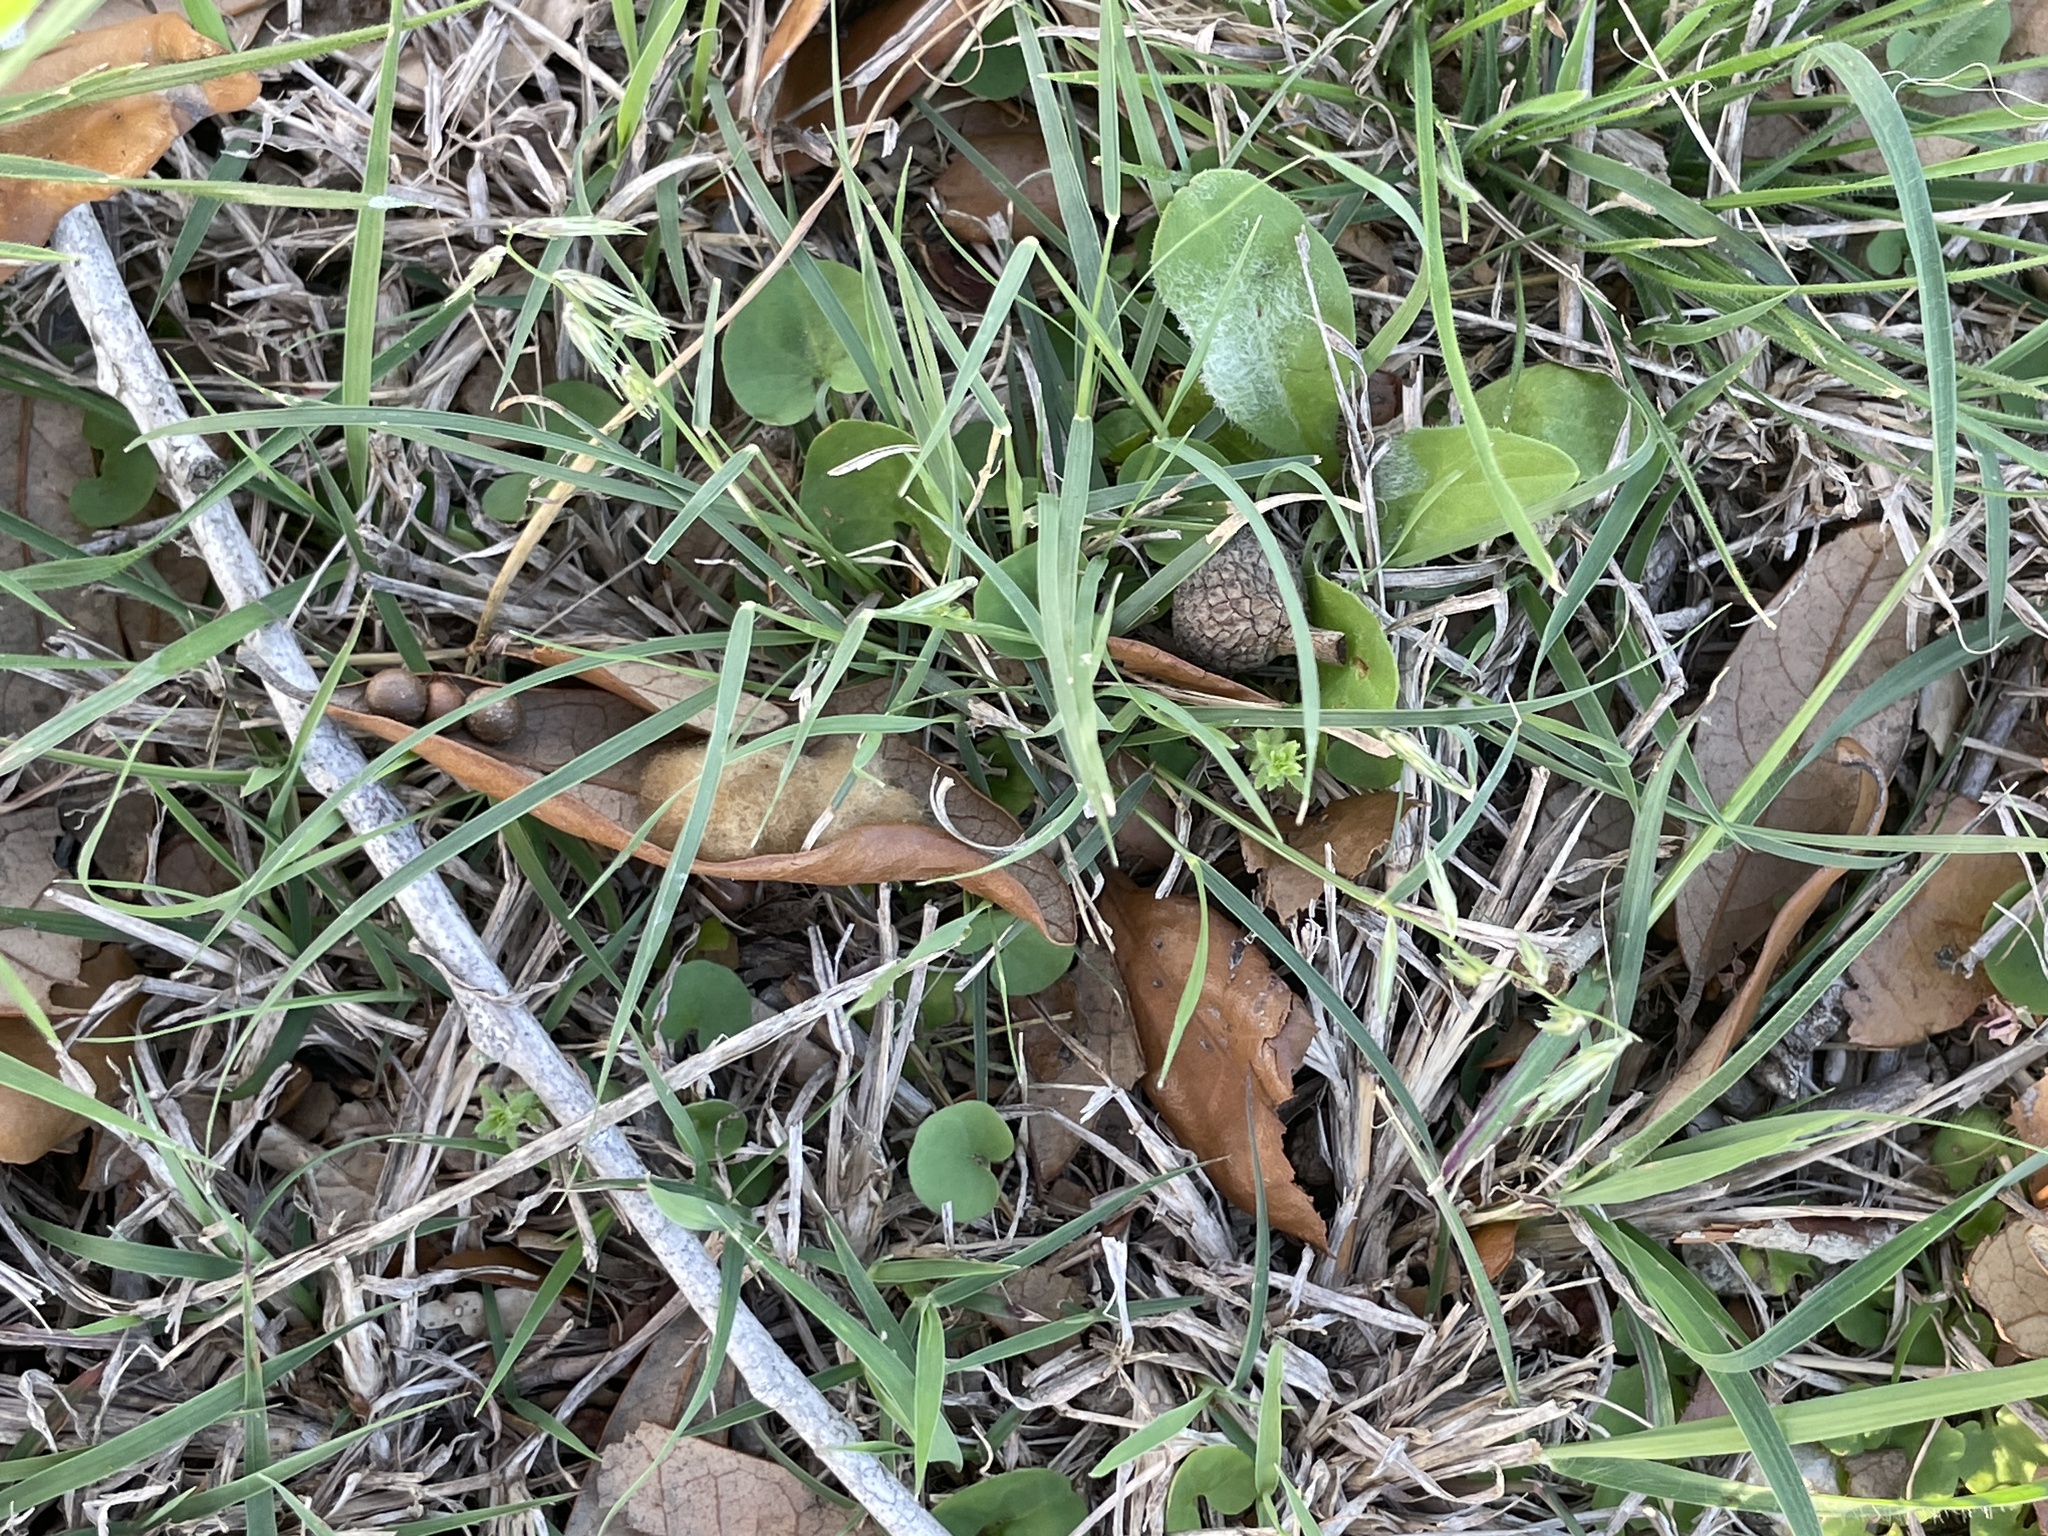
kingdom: Plantae
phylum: Tracheophyta
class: Liliopsida
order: Poales
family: Poaceae
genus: Bouteloua
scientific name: Bouteloua rigidiseta
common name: Texas grama
